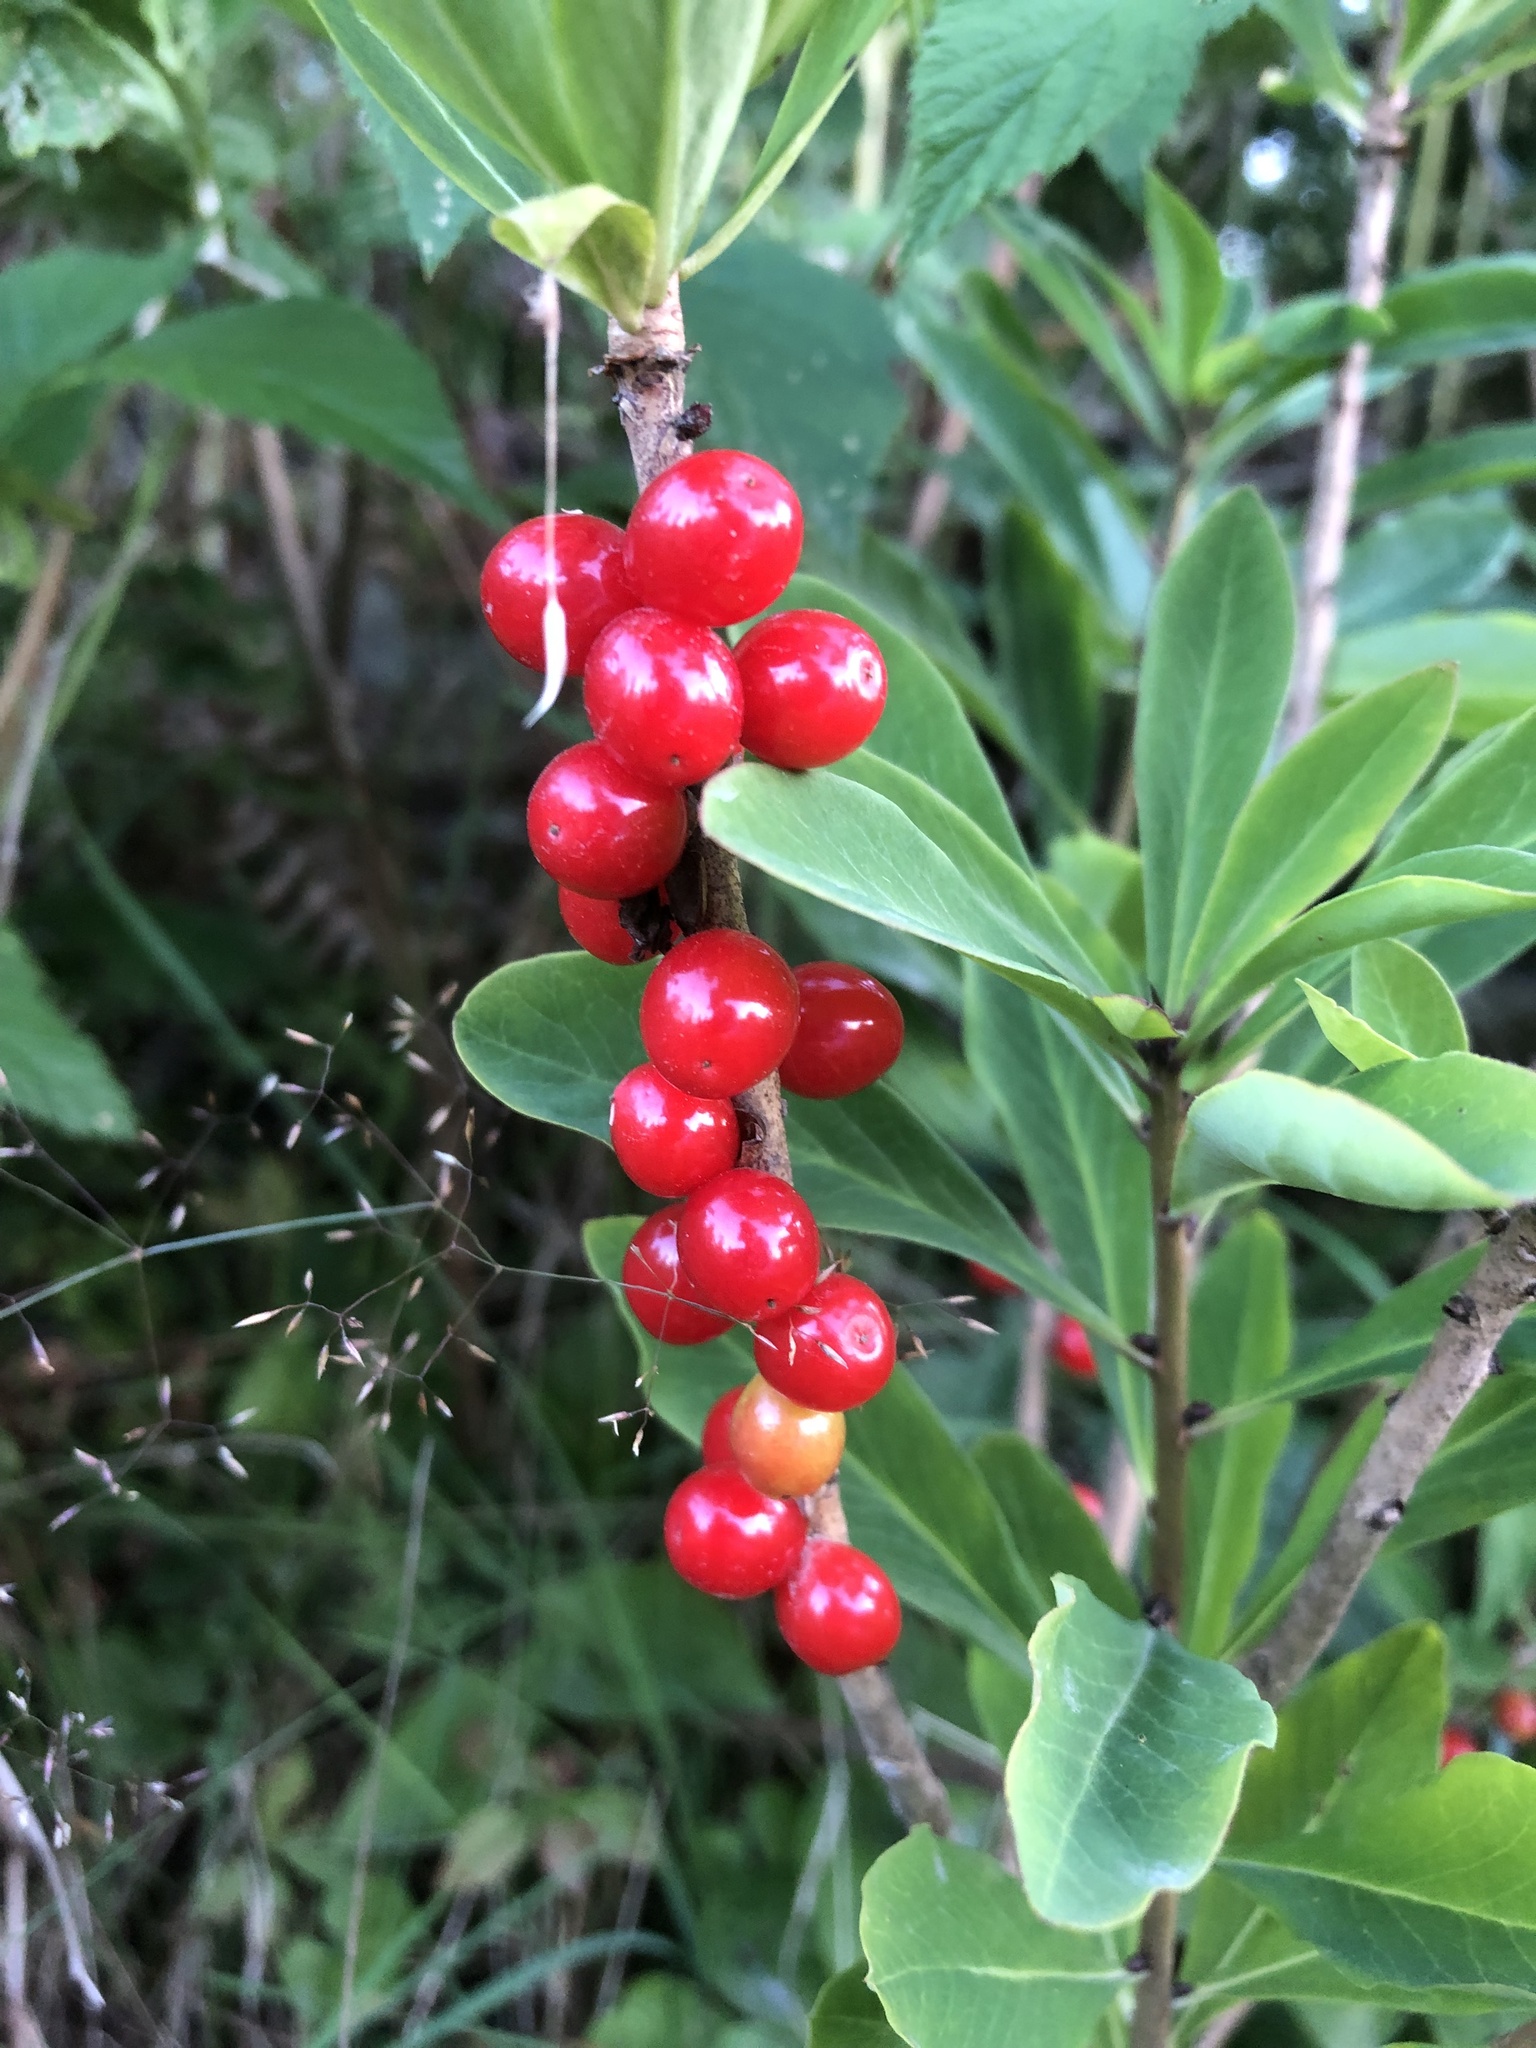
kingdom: Plantae
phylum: Tracheophyta
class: Magnoliopsida
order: Malvales
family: Thymelaeaceae
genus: Daphne
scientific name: Daphne mezereum
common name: Mezereon
